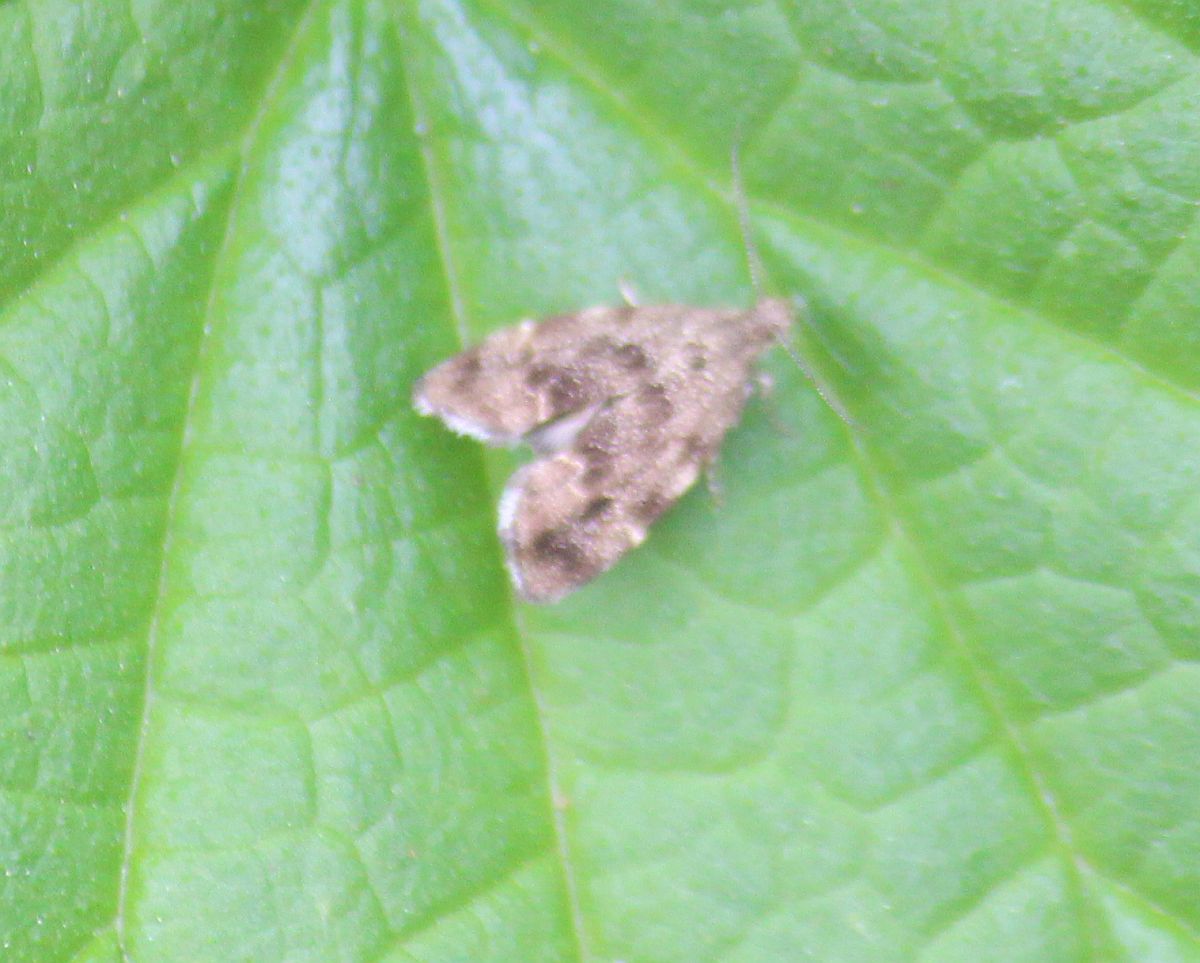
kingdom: Animalia
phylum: Arthropoda
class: Insecta
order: Lepidoptera
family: Choreutidae
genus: Anthophila
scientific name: Anthophila fabriciana
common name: Nettle-tap
